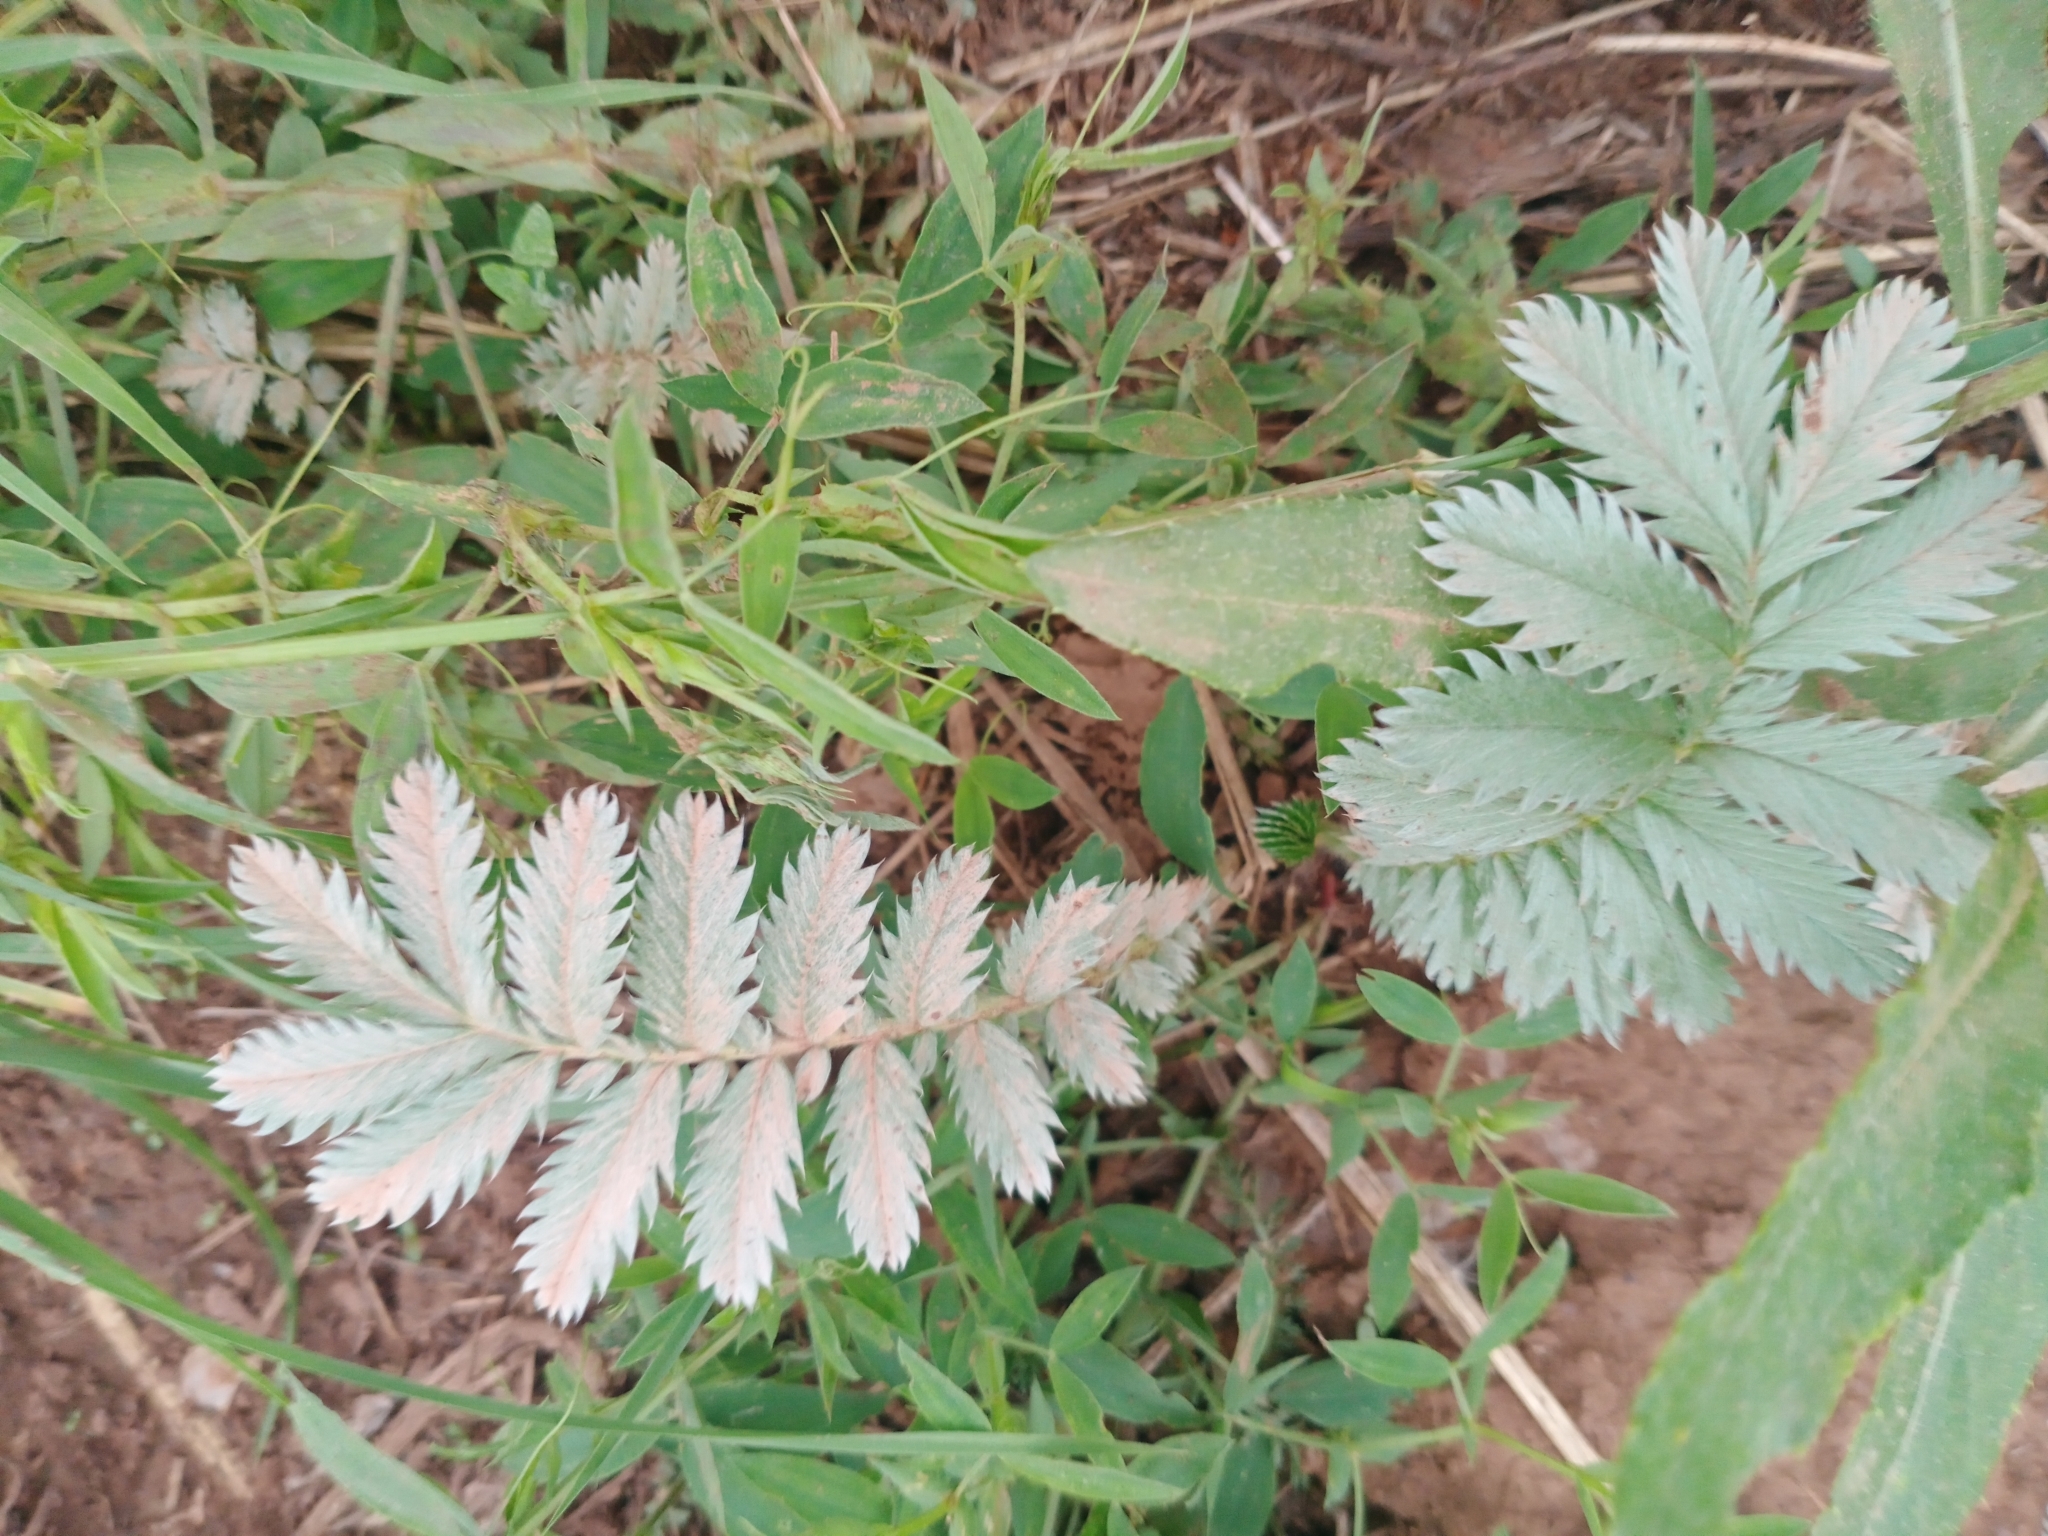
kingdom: Plantae
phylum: Tracheophyta
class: Magnoliopsida
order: Rosales
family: Rosaceae
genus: Argentina
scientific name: Argentina anserina
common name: Common silverweed
